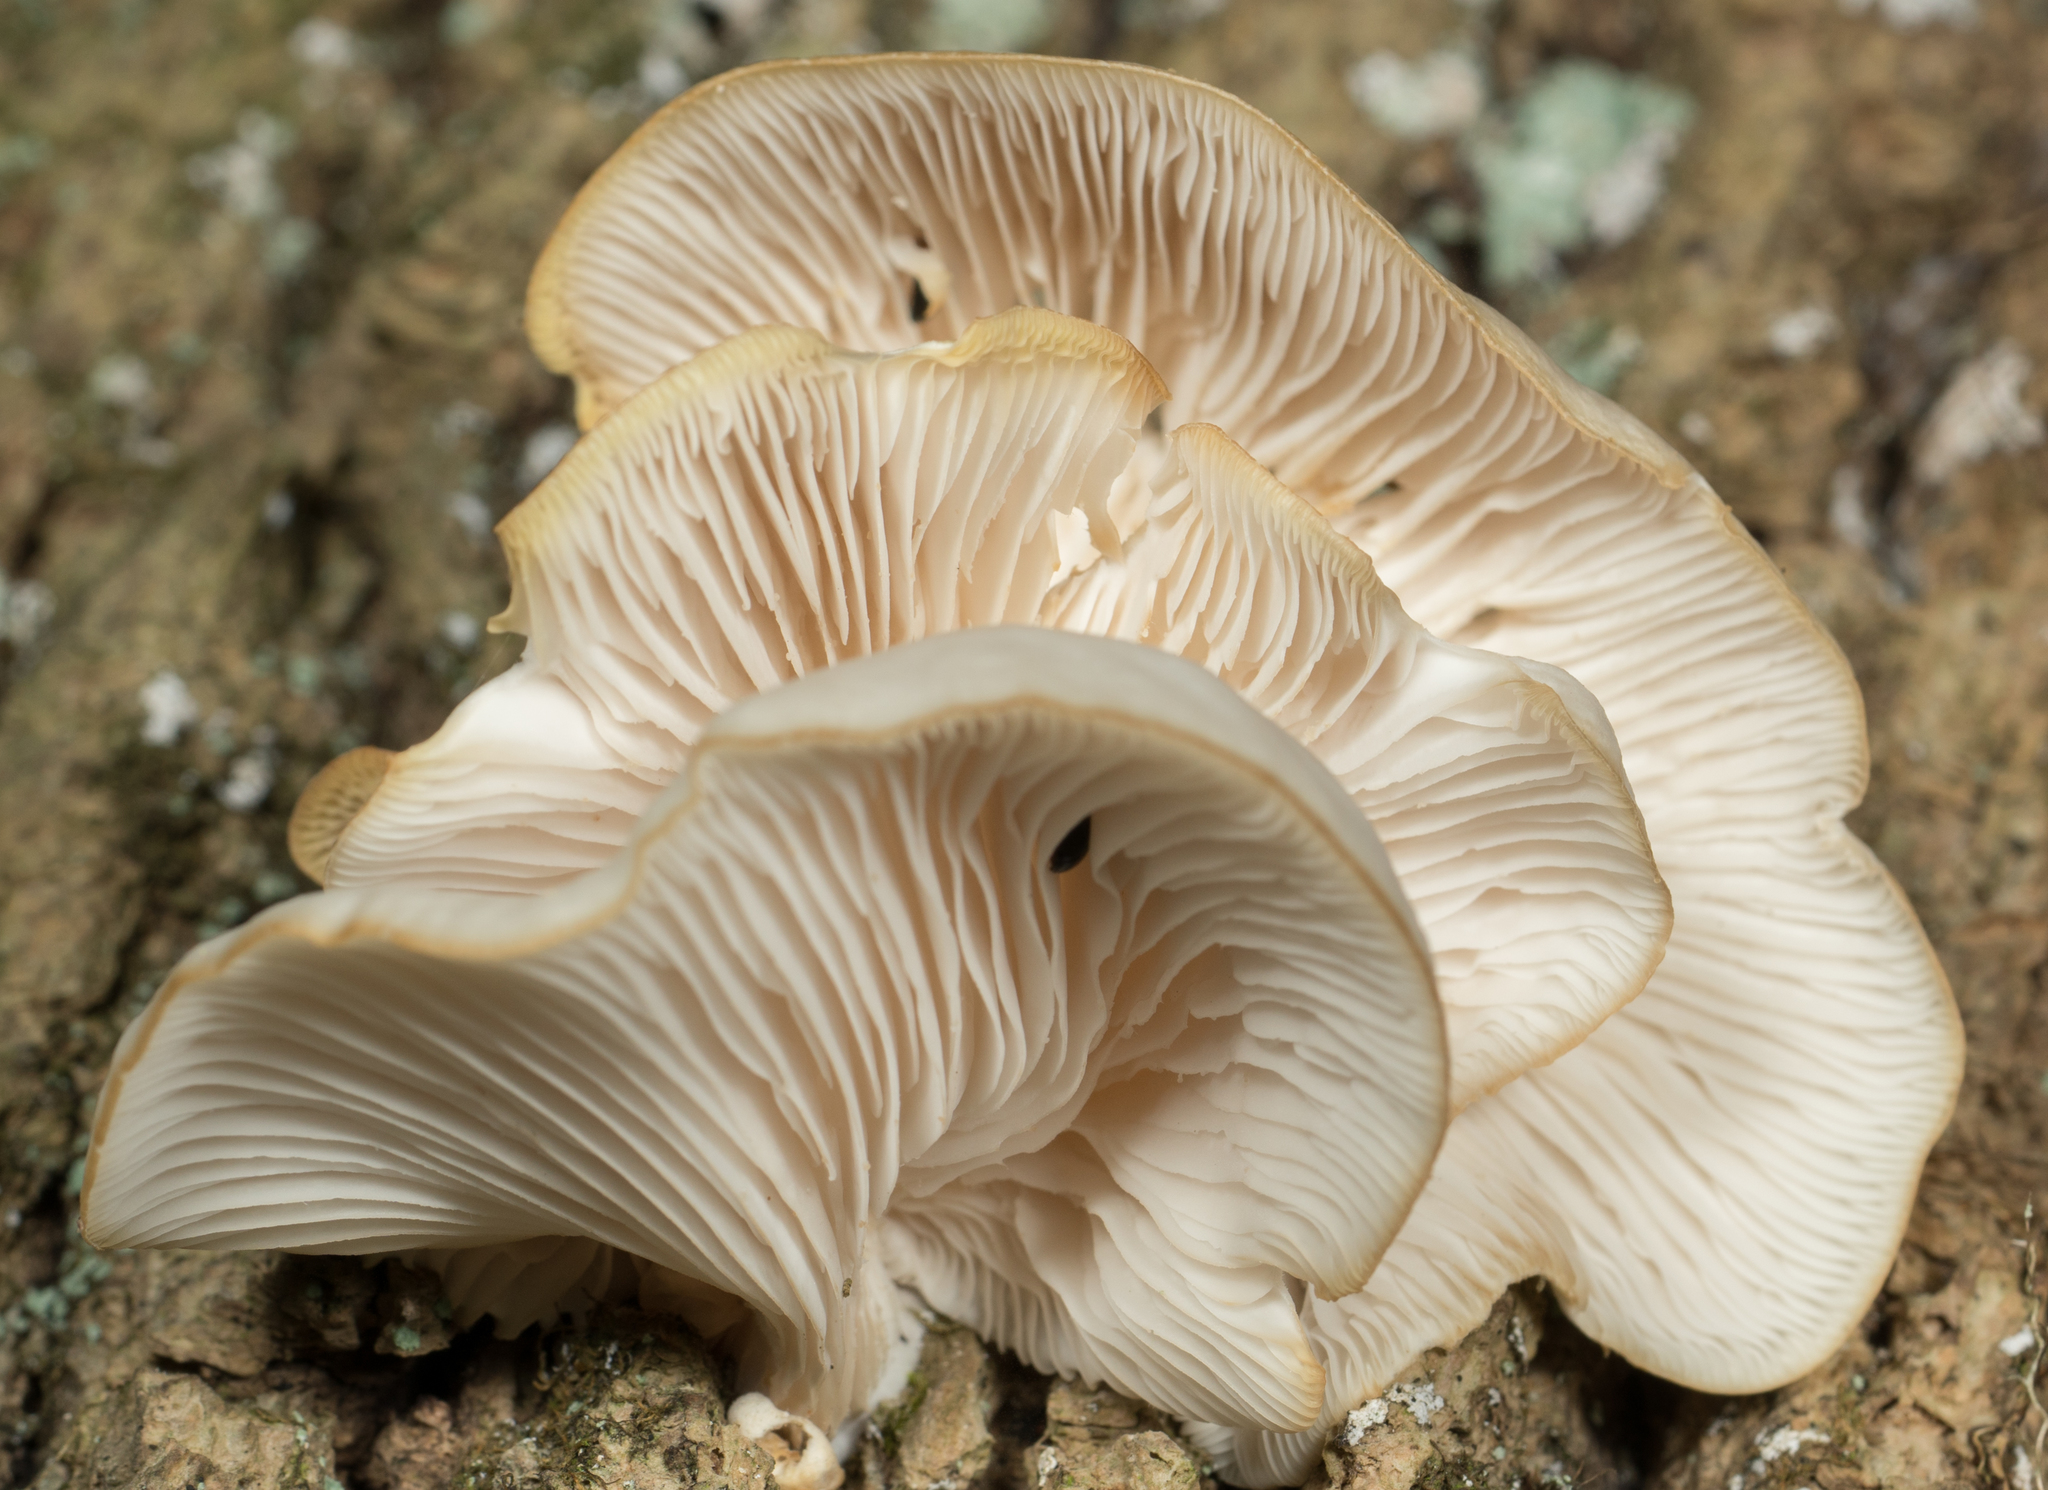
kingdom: Fungi
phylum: Basidiomycota
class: Agaricomycetes
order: Agaricales
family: Pleurotaceae
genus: Pleurotus
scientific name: Pleurotus ostreatus
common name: Oyster mushroom
